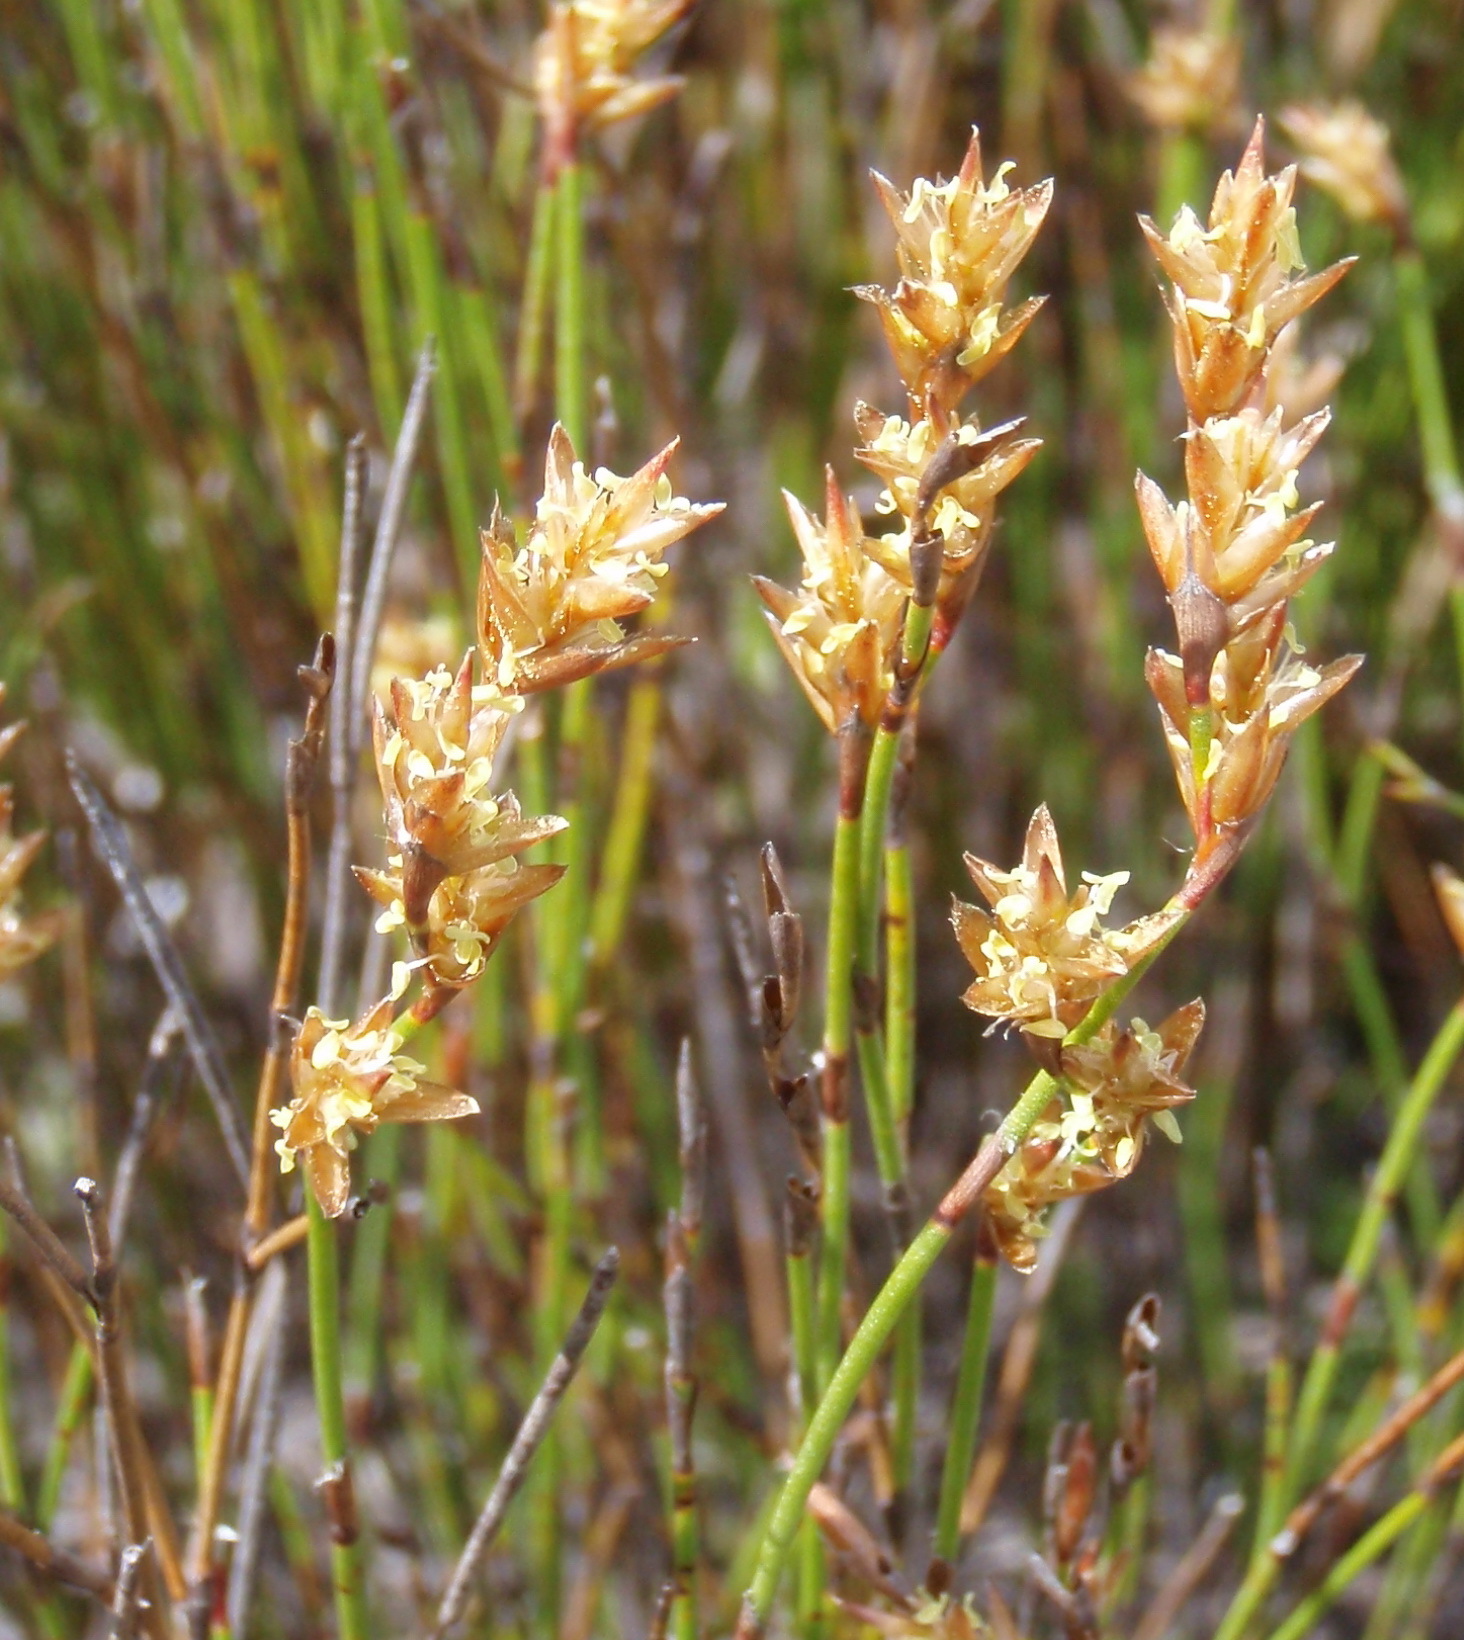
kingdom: Plantae
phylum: Tracheophyta
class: Liliopsida
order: Poales
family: Restionaceae
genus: Restio
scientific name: Restio triticeus
